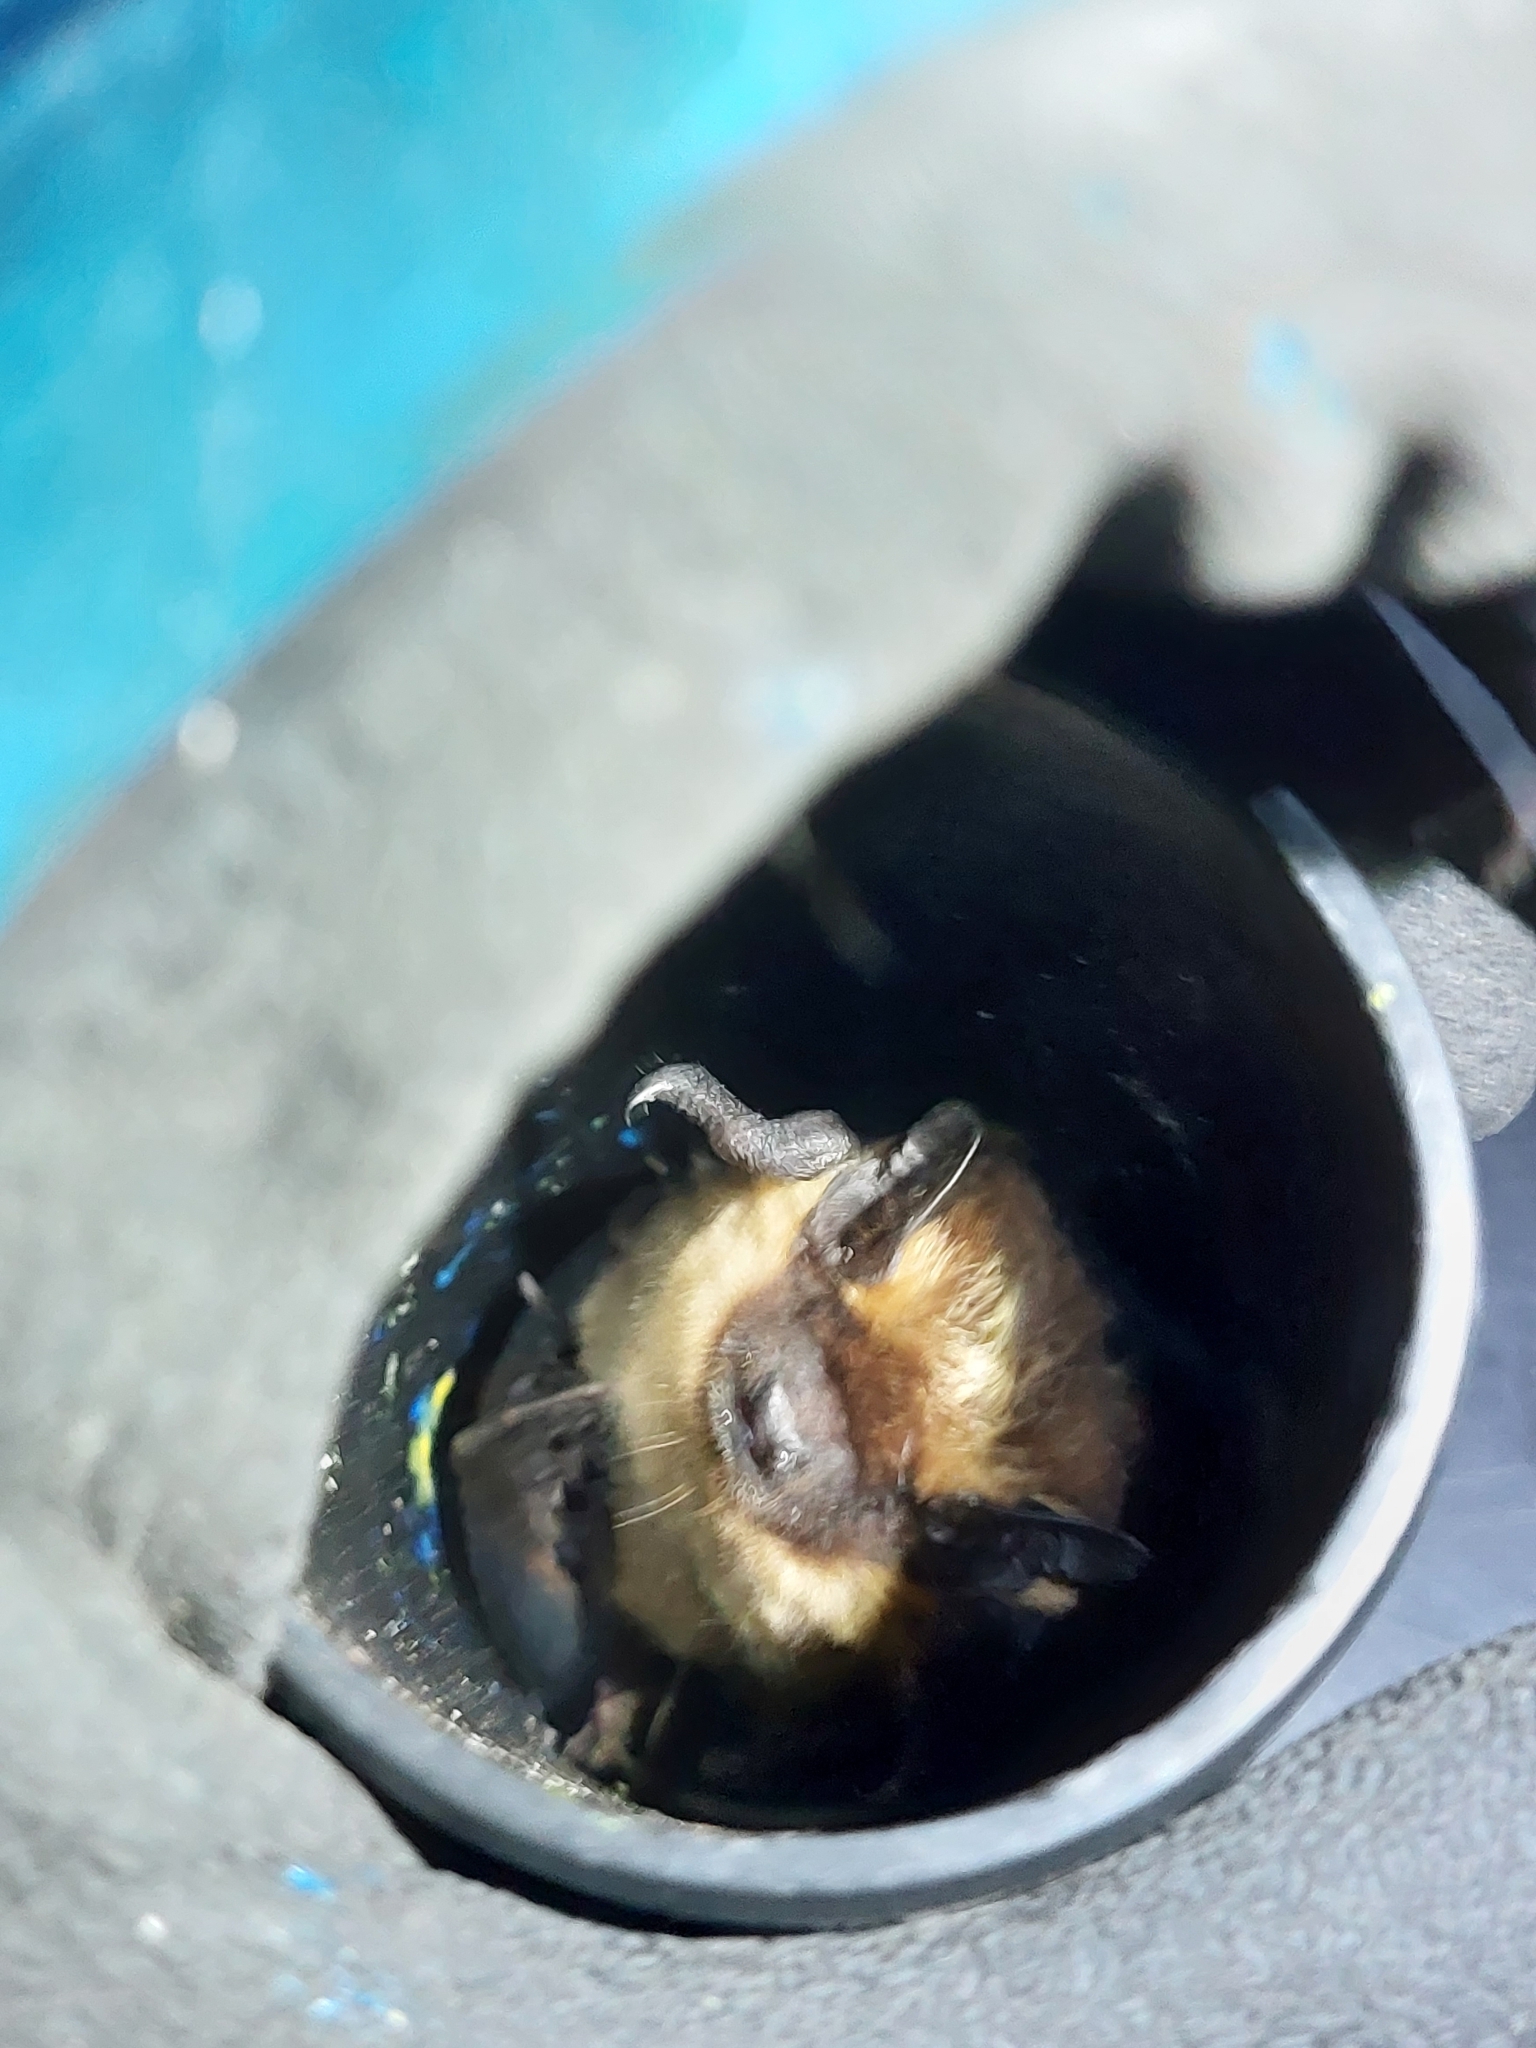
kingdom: Animalia
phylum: Chordata
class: Mammalia
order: Chiroptera
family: Vespertilionidae
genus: Eptesicus
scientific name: Eptesicus nilssonii
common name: Northern bat
